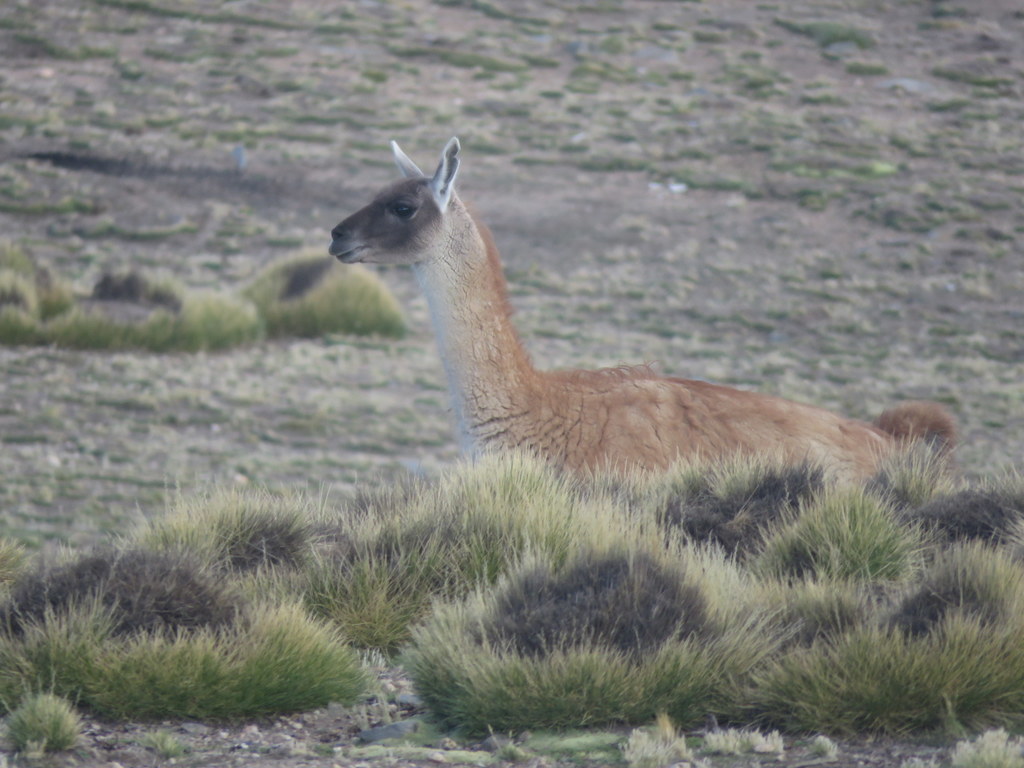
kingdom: Animalia
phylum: Chordata
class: Mammalia
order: Artiodactyla
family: Camelidae
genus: Lama
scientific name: Lama glama
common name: Llama
